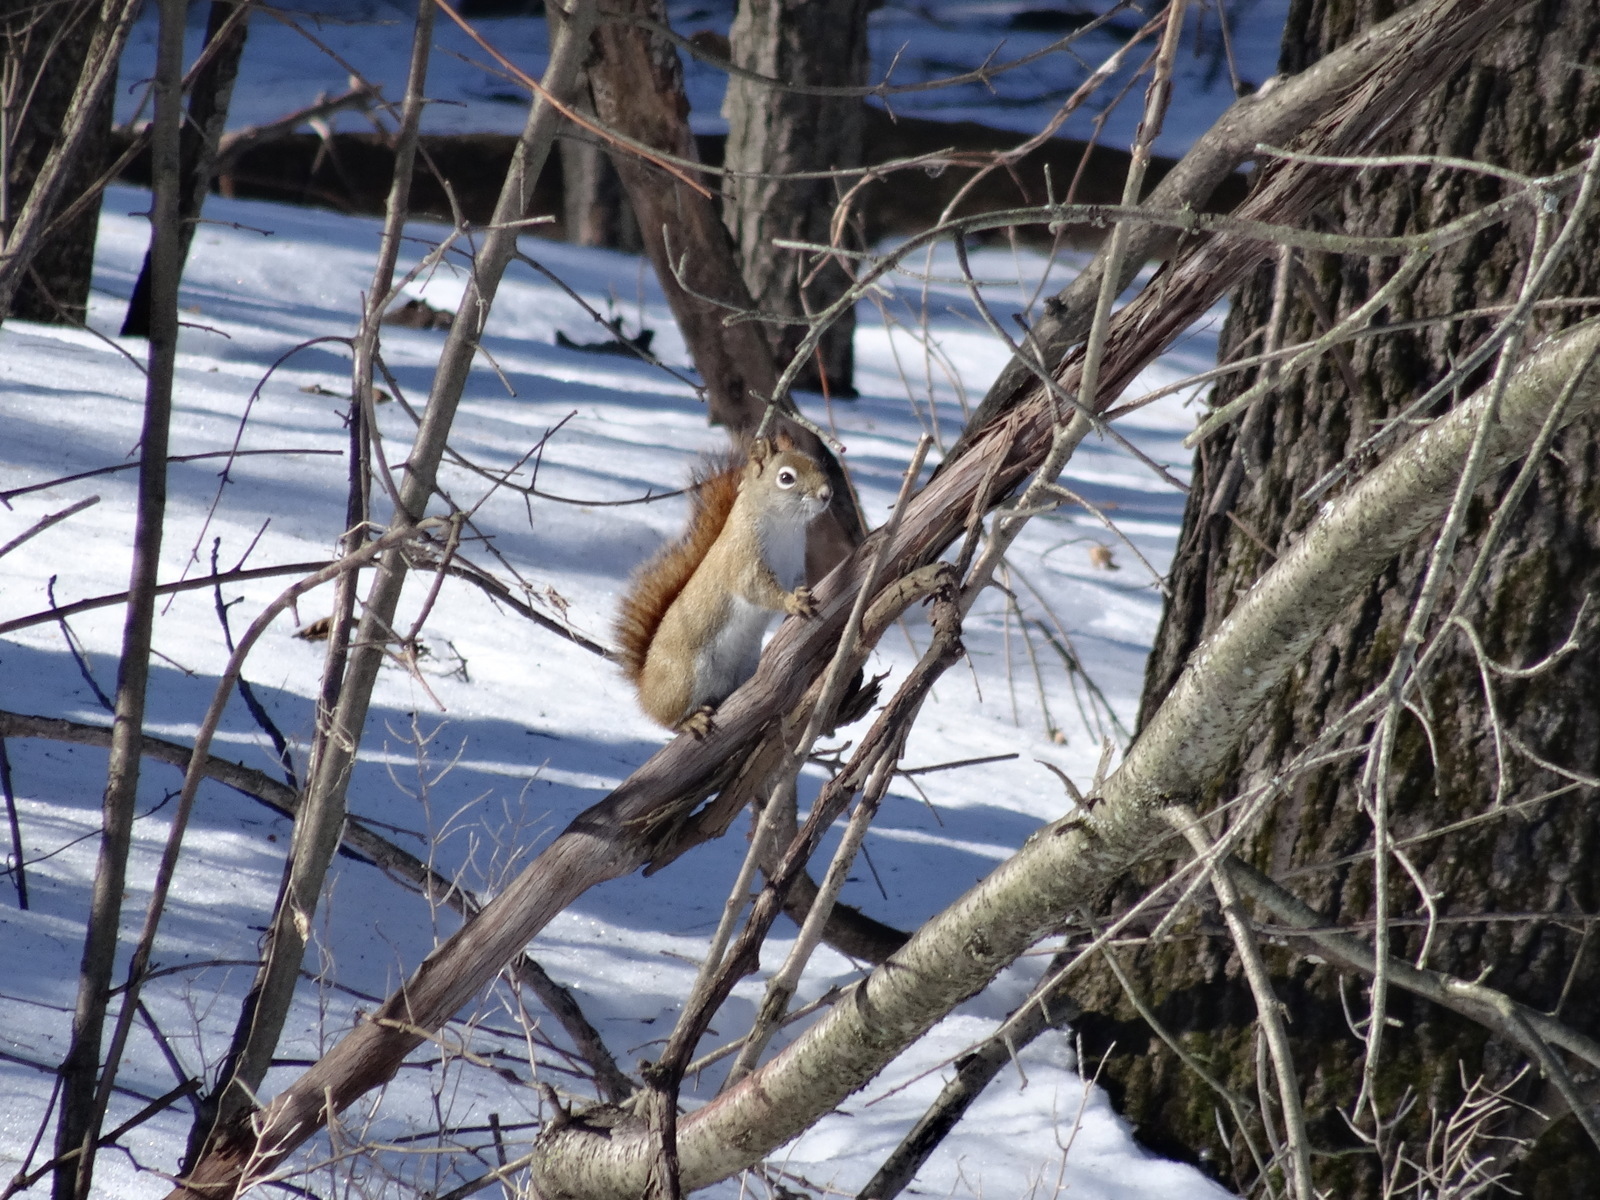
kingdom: Animalia
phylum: Chordata
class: Mammalia
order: Rodentia
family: Sciuridae
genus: Tamiasciurus
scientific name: Tamiasciurus hudsonicus
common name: Red squirrel
